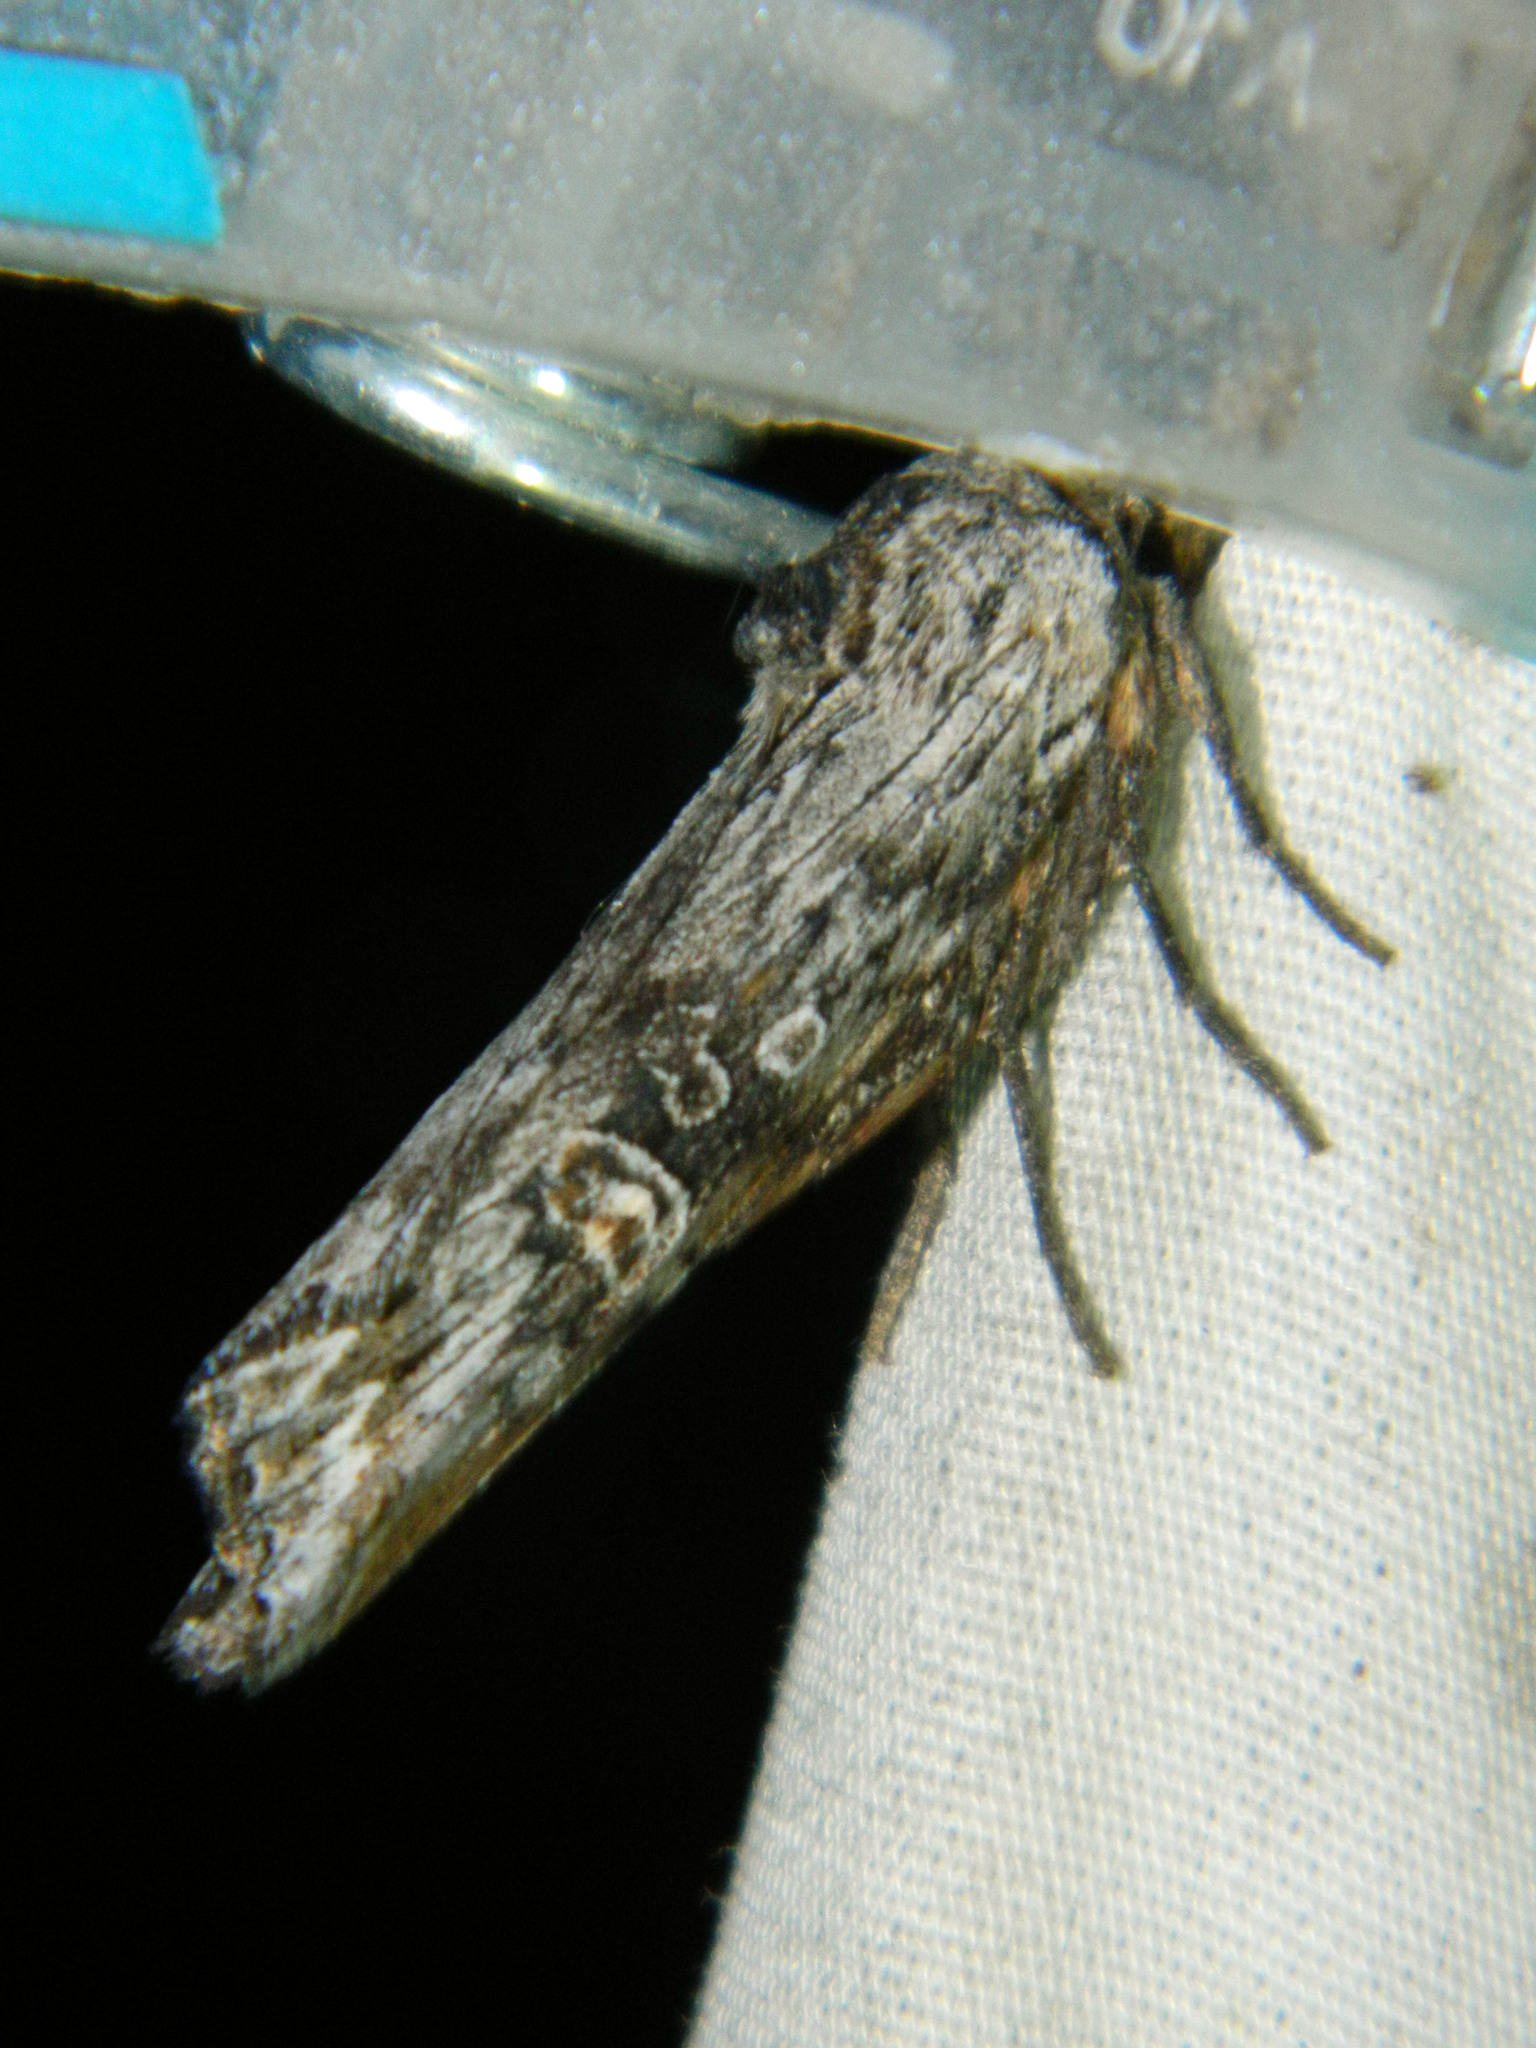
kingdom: Animalia
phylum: Arthropoda
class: Insecta
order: Lepidoptera
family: Noctuidae
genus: Xylena
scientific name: Xylena germana
